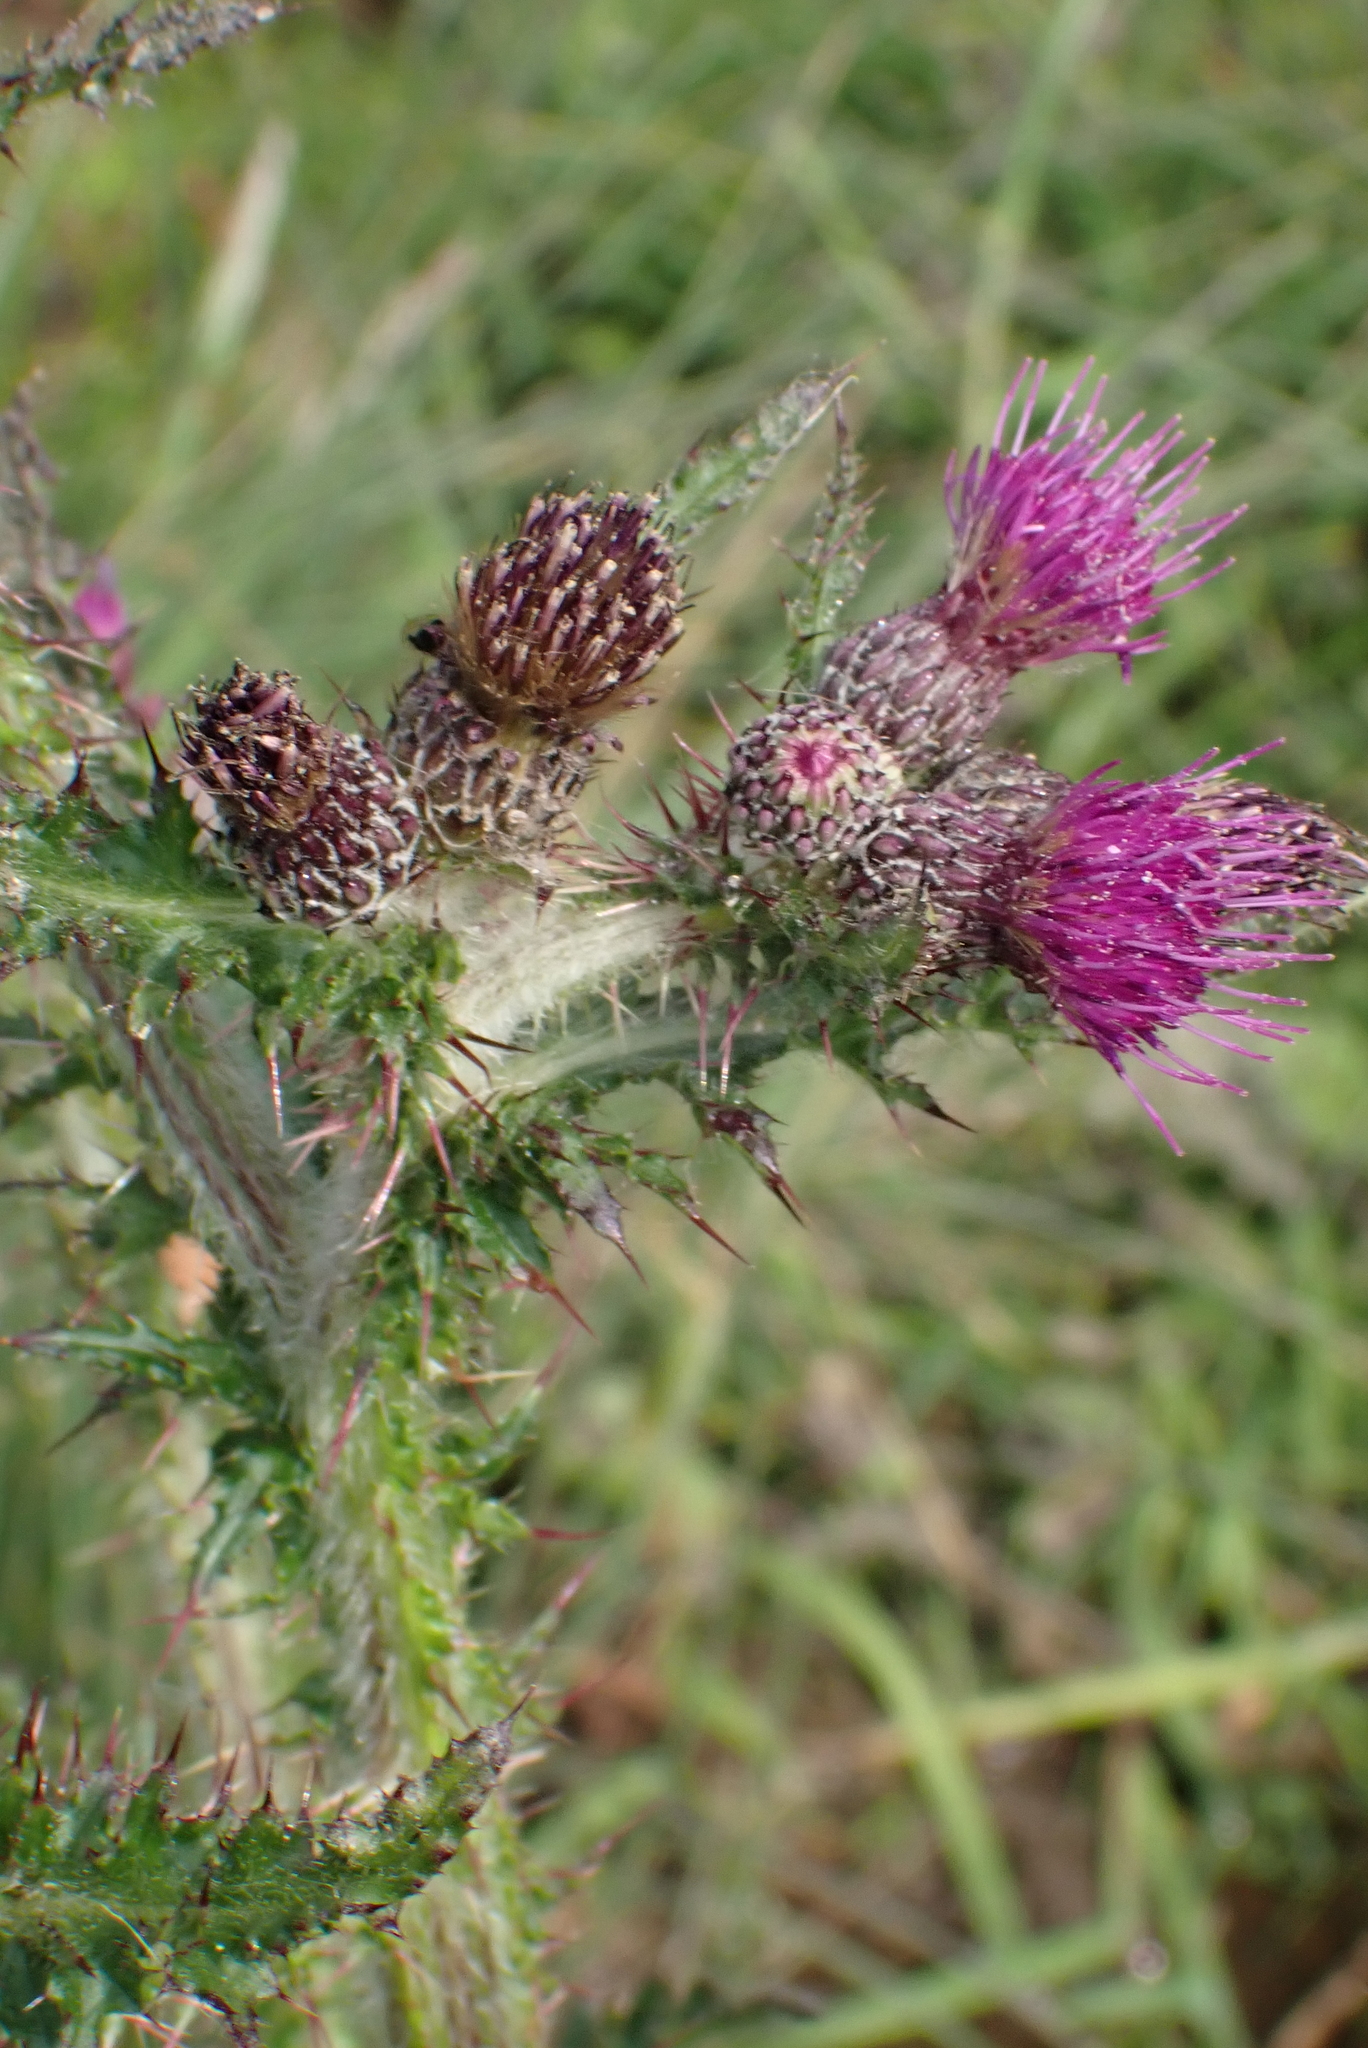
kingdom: Plantae
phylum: Tracheophyta
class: Magnoliopsida
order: Asterales
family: Asteraceae
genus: Cirsium
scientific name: Cirsium palustre
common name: Marsh thistle
